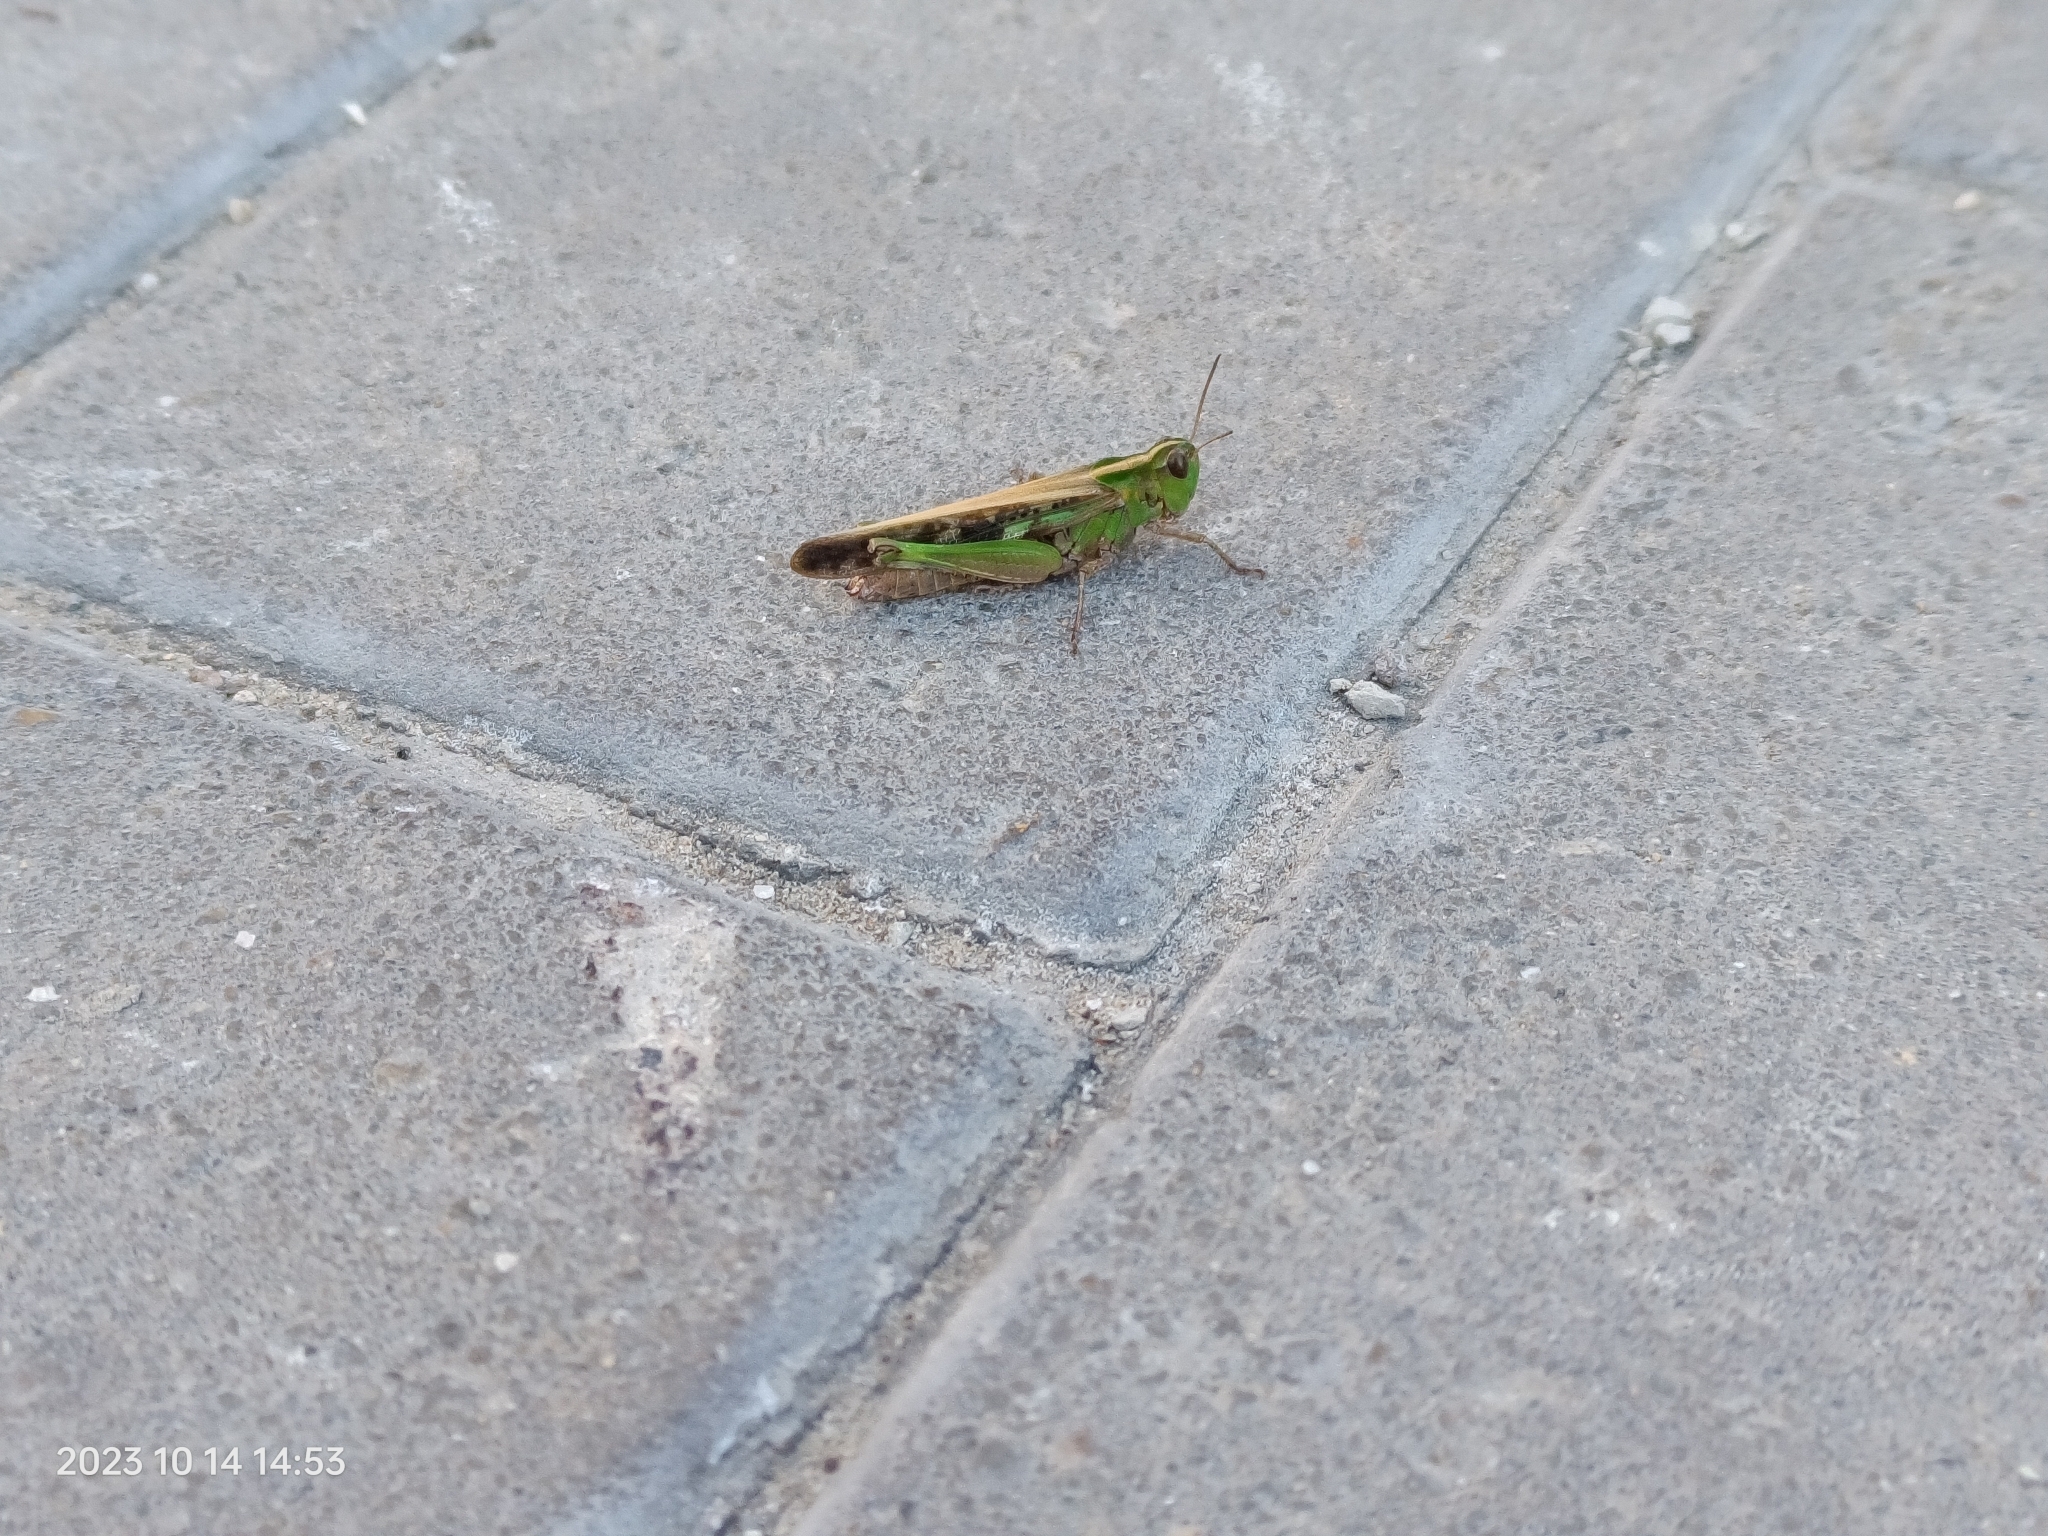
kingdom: Animalia
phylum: Arthropoda
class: Insecta
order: Orthoptera
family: Acrididae
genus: Aiolopus
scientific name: Aiolopus thalassinus
